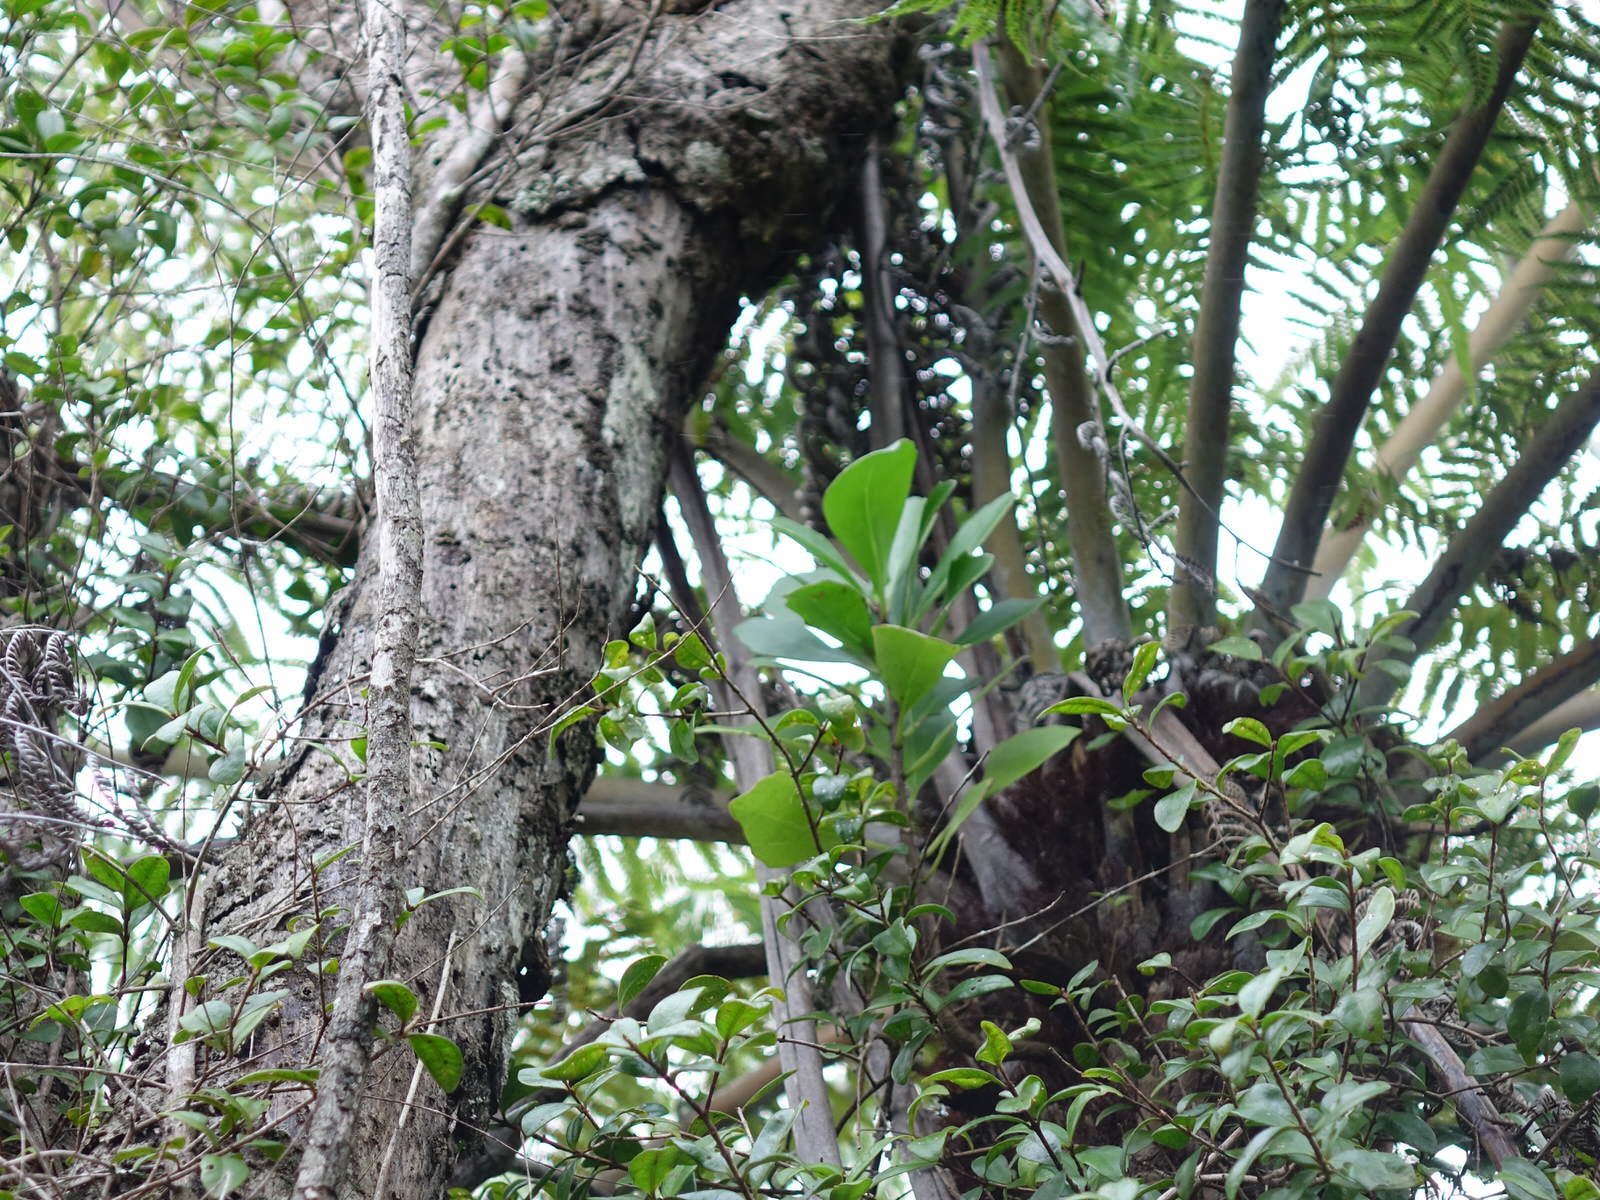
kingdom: Plantae
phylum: Tracheophyta
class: Magnoliopsida
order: Asterales
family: Asteraceae
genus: Brachyglottis
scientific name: Brachyglottis kirkii
